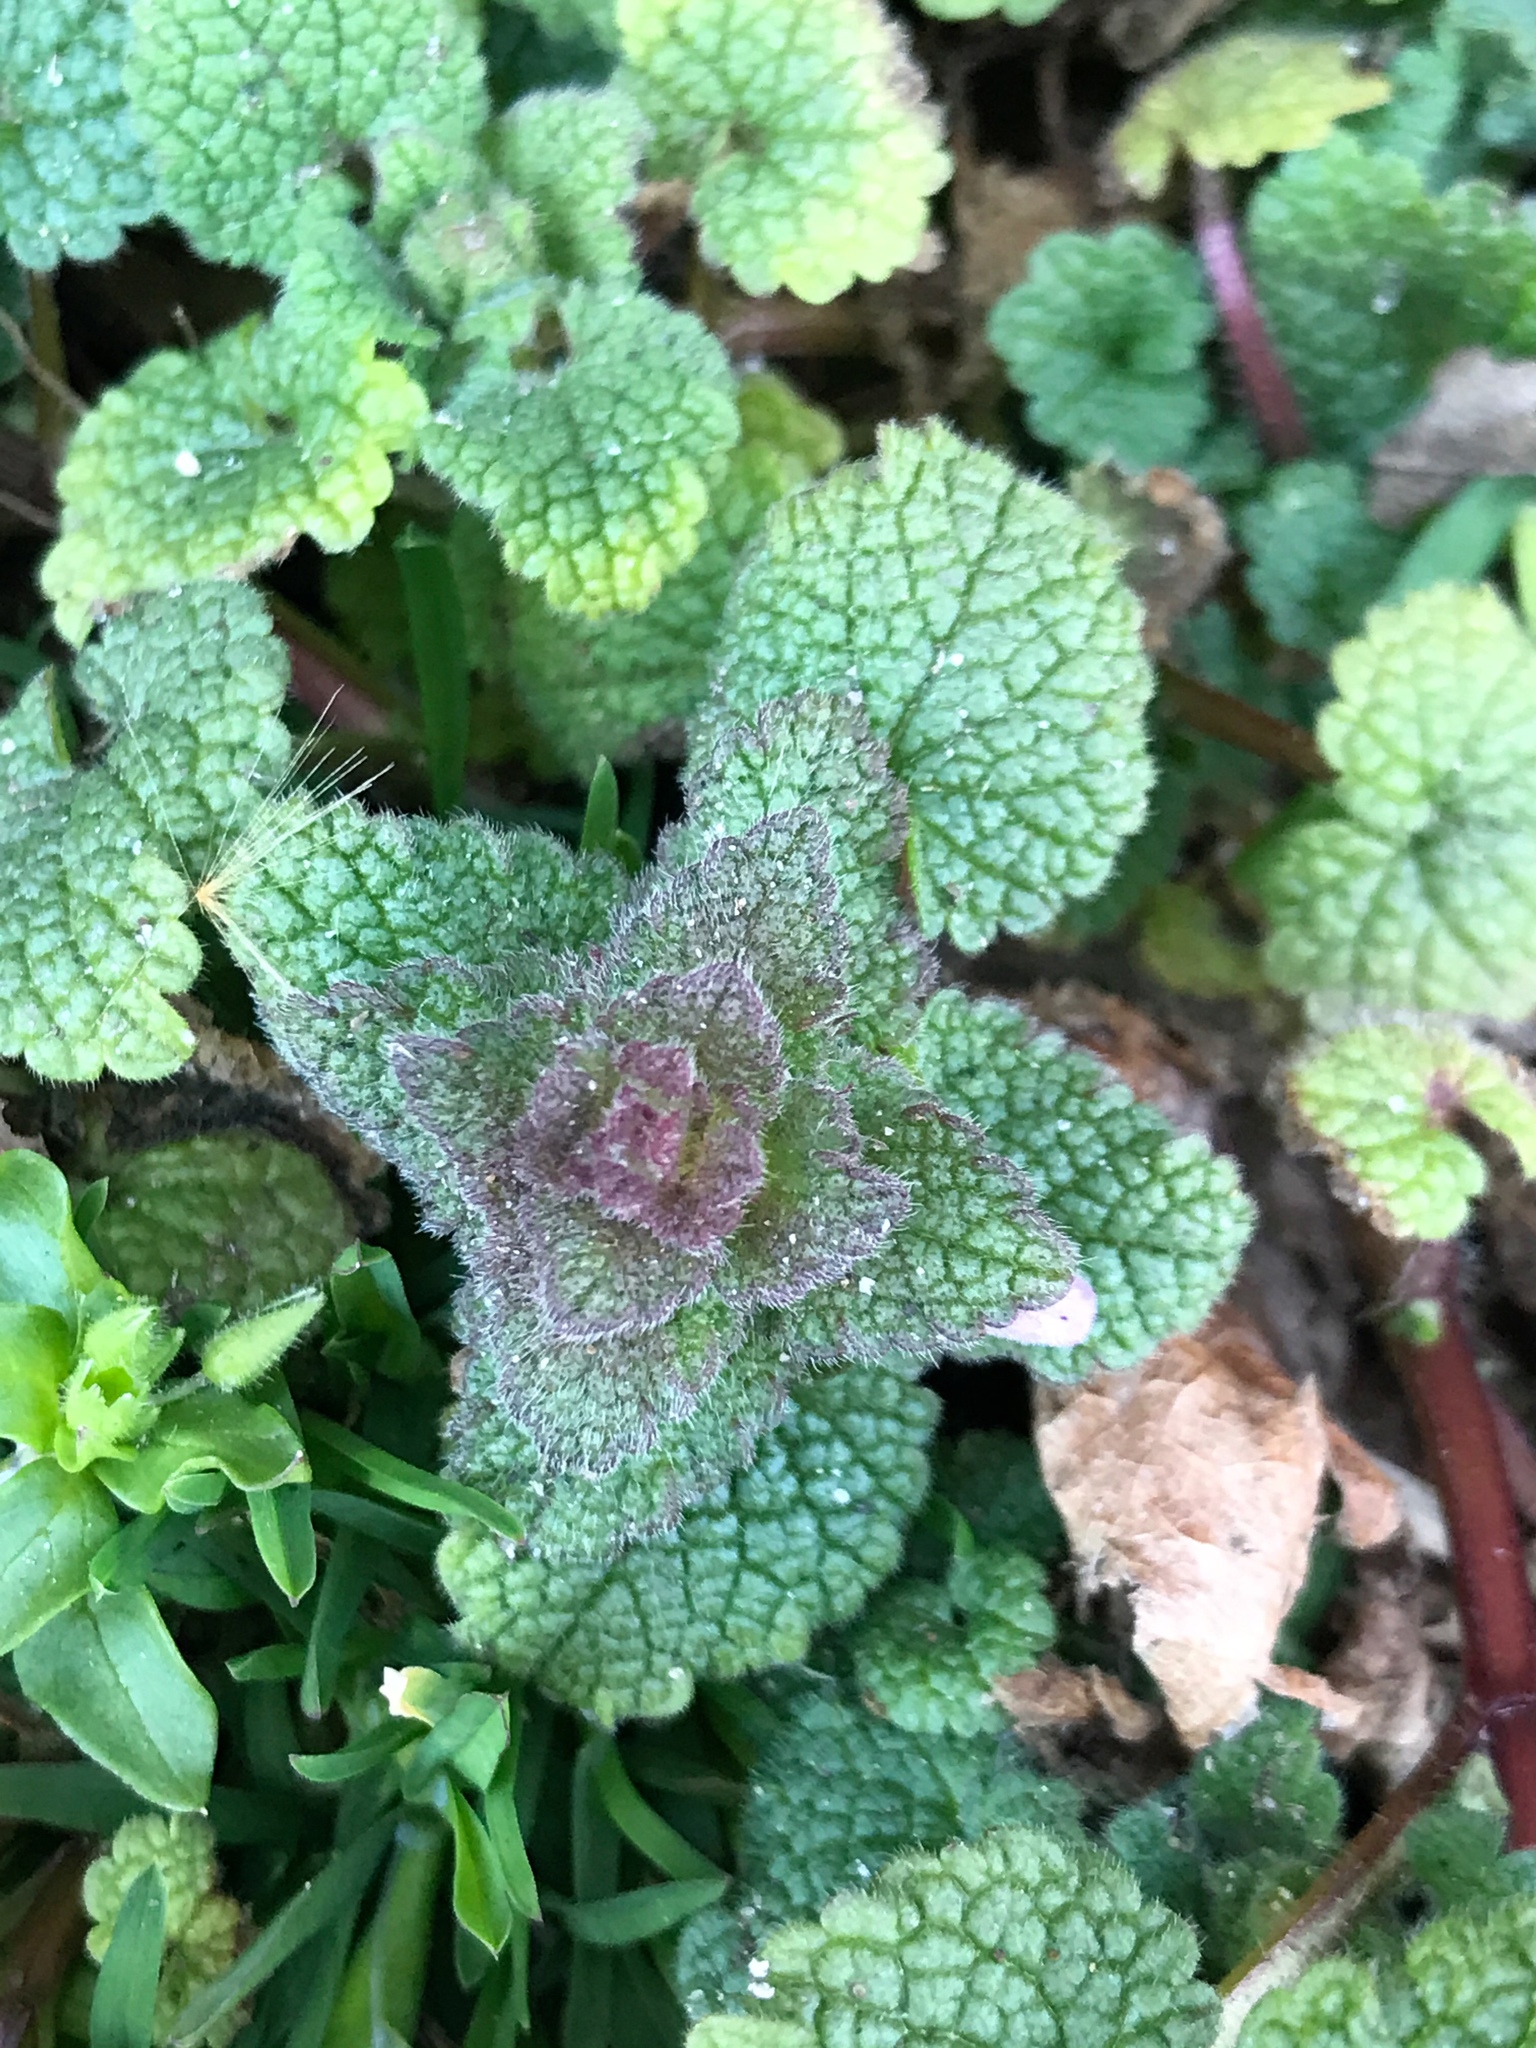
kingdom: Plantae
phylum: Tracheophyta
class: Magnoliopsida
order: Lamiales
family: Lamiaceae
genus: Lamium
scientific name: Lamium purpureum
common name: Red dead-nettle
